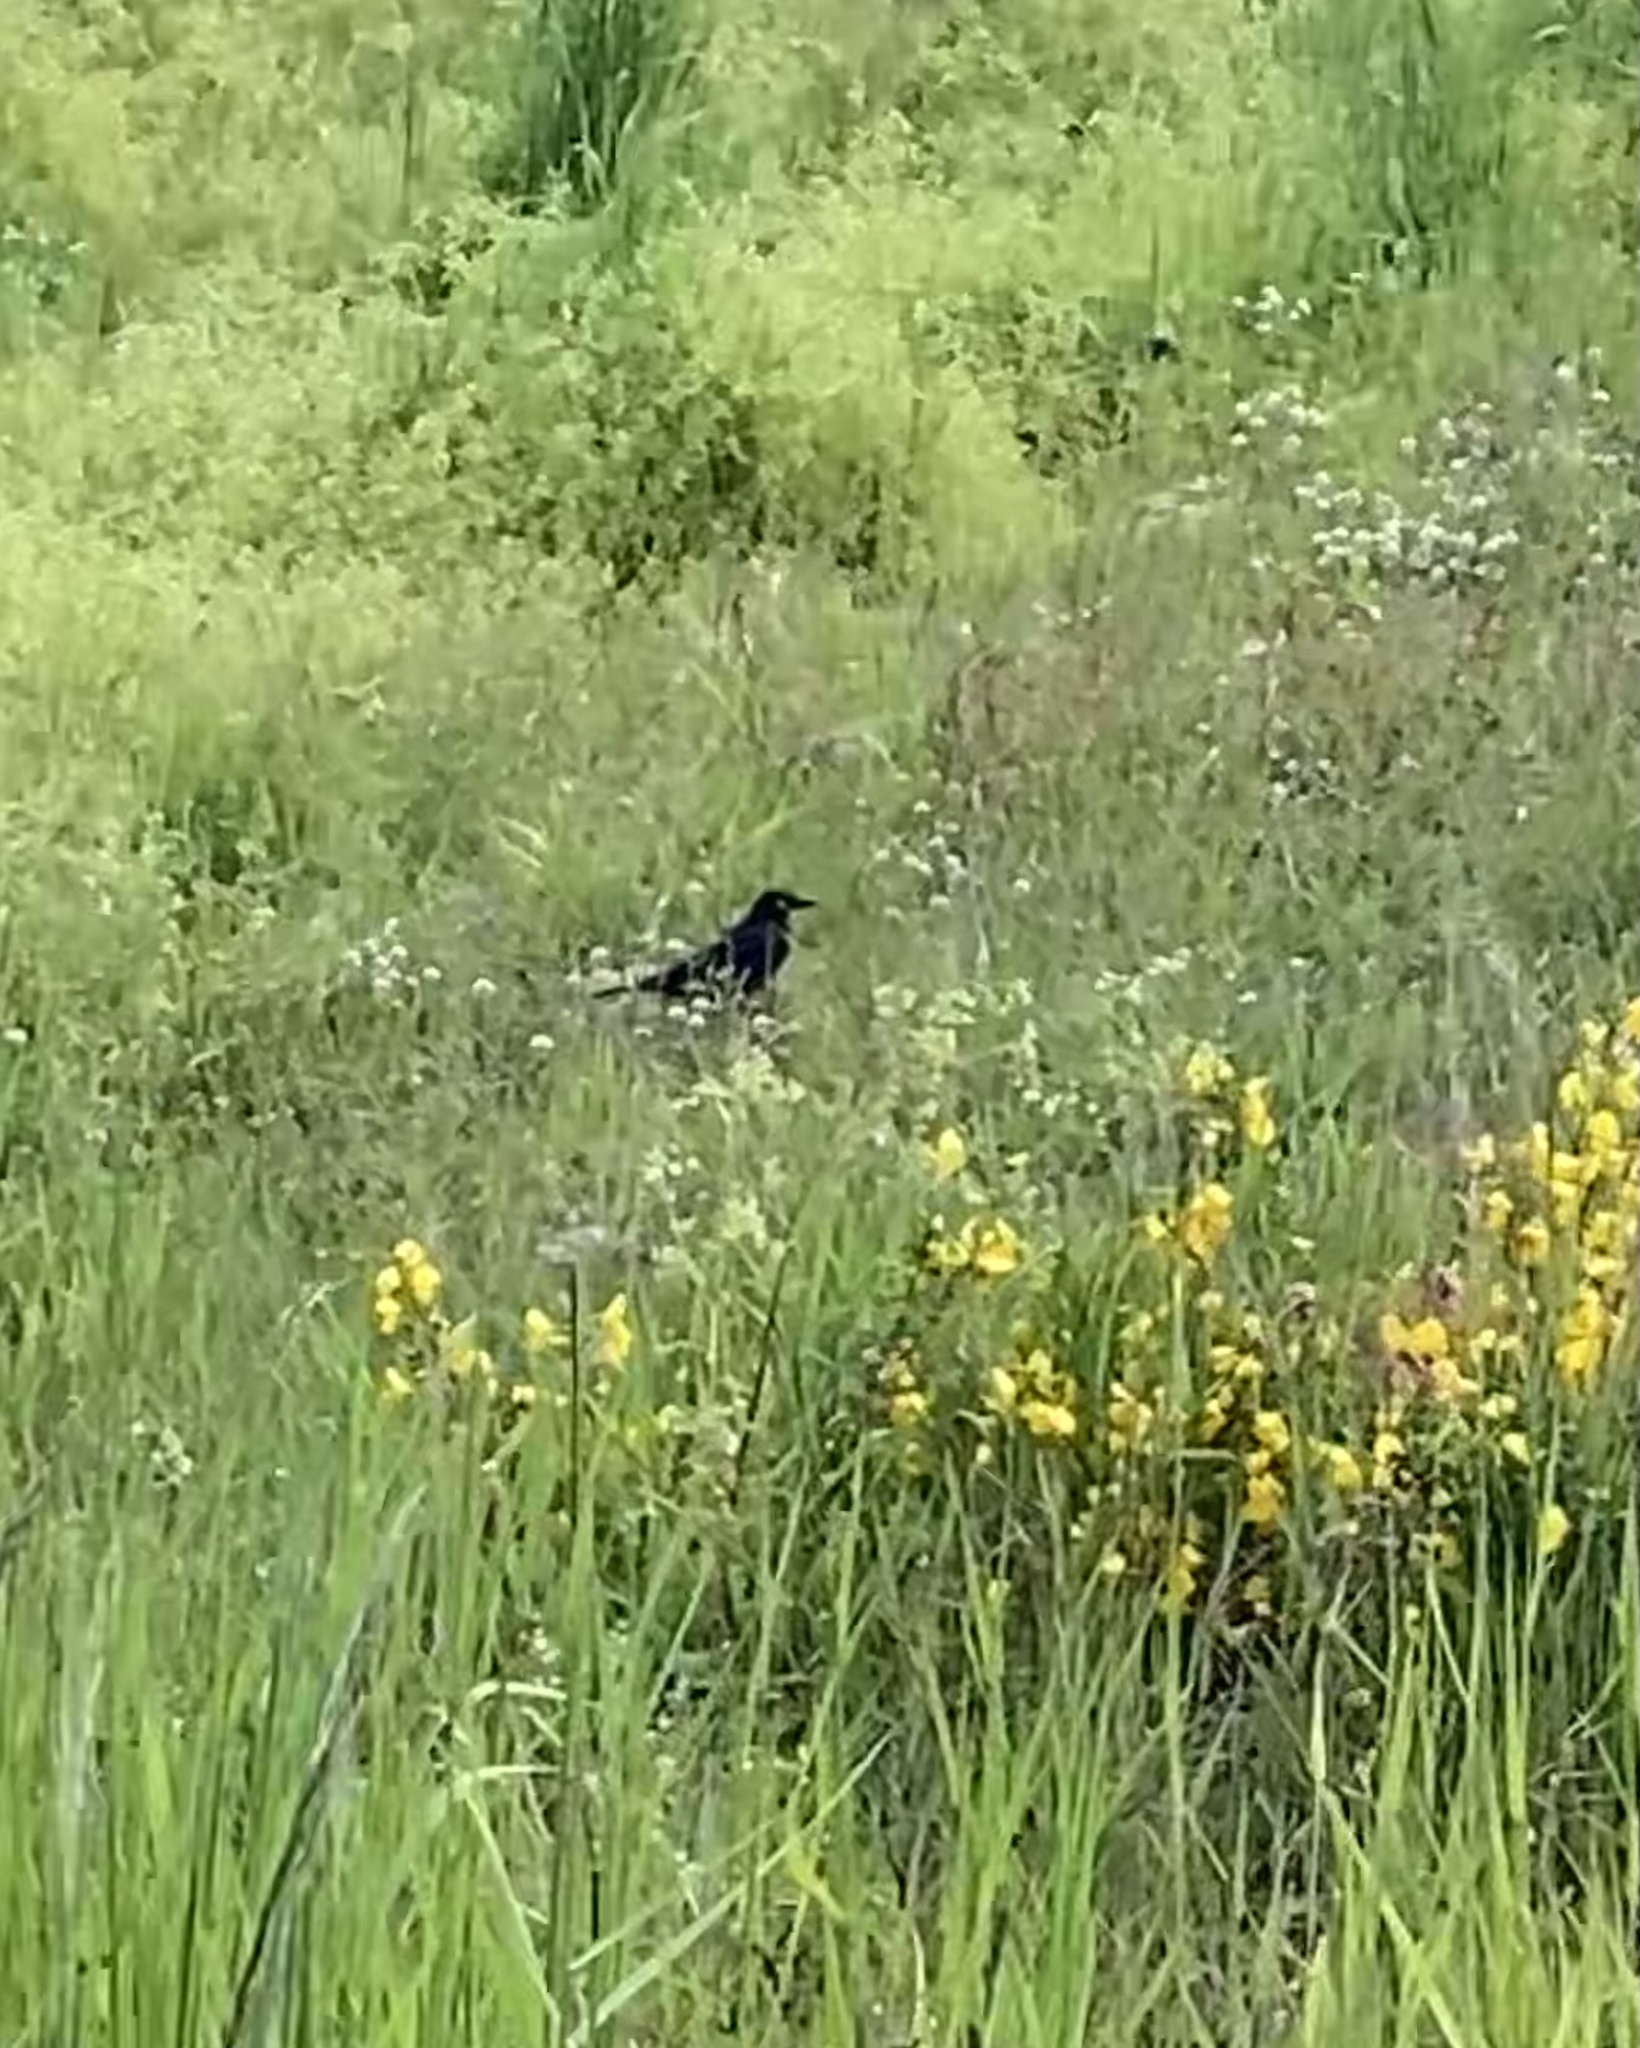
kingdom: Animalia
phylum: Chordata
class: Aves
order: Passeriformes
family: Icteridae
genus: Euphagus
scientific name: Euphagus cyanocephalus
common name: Brewer's blackbird
